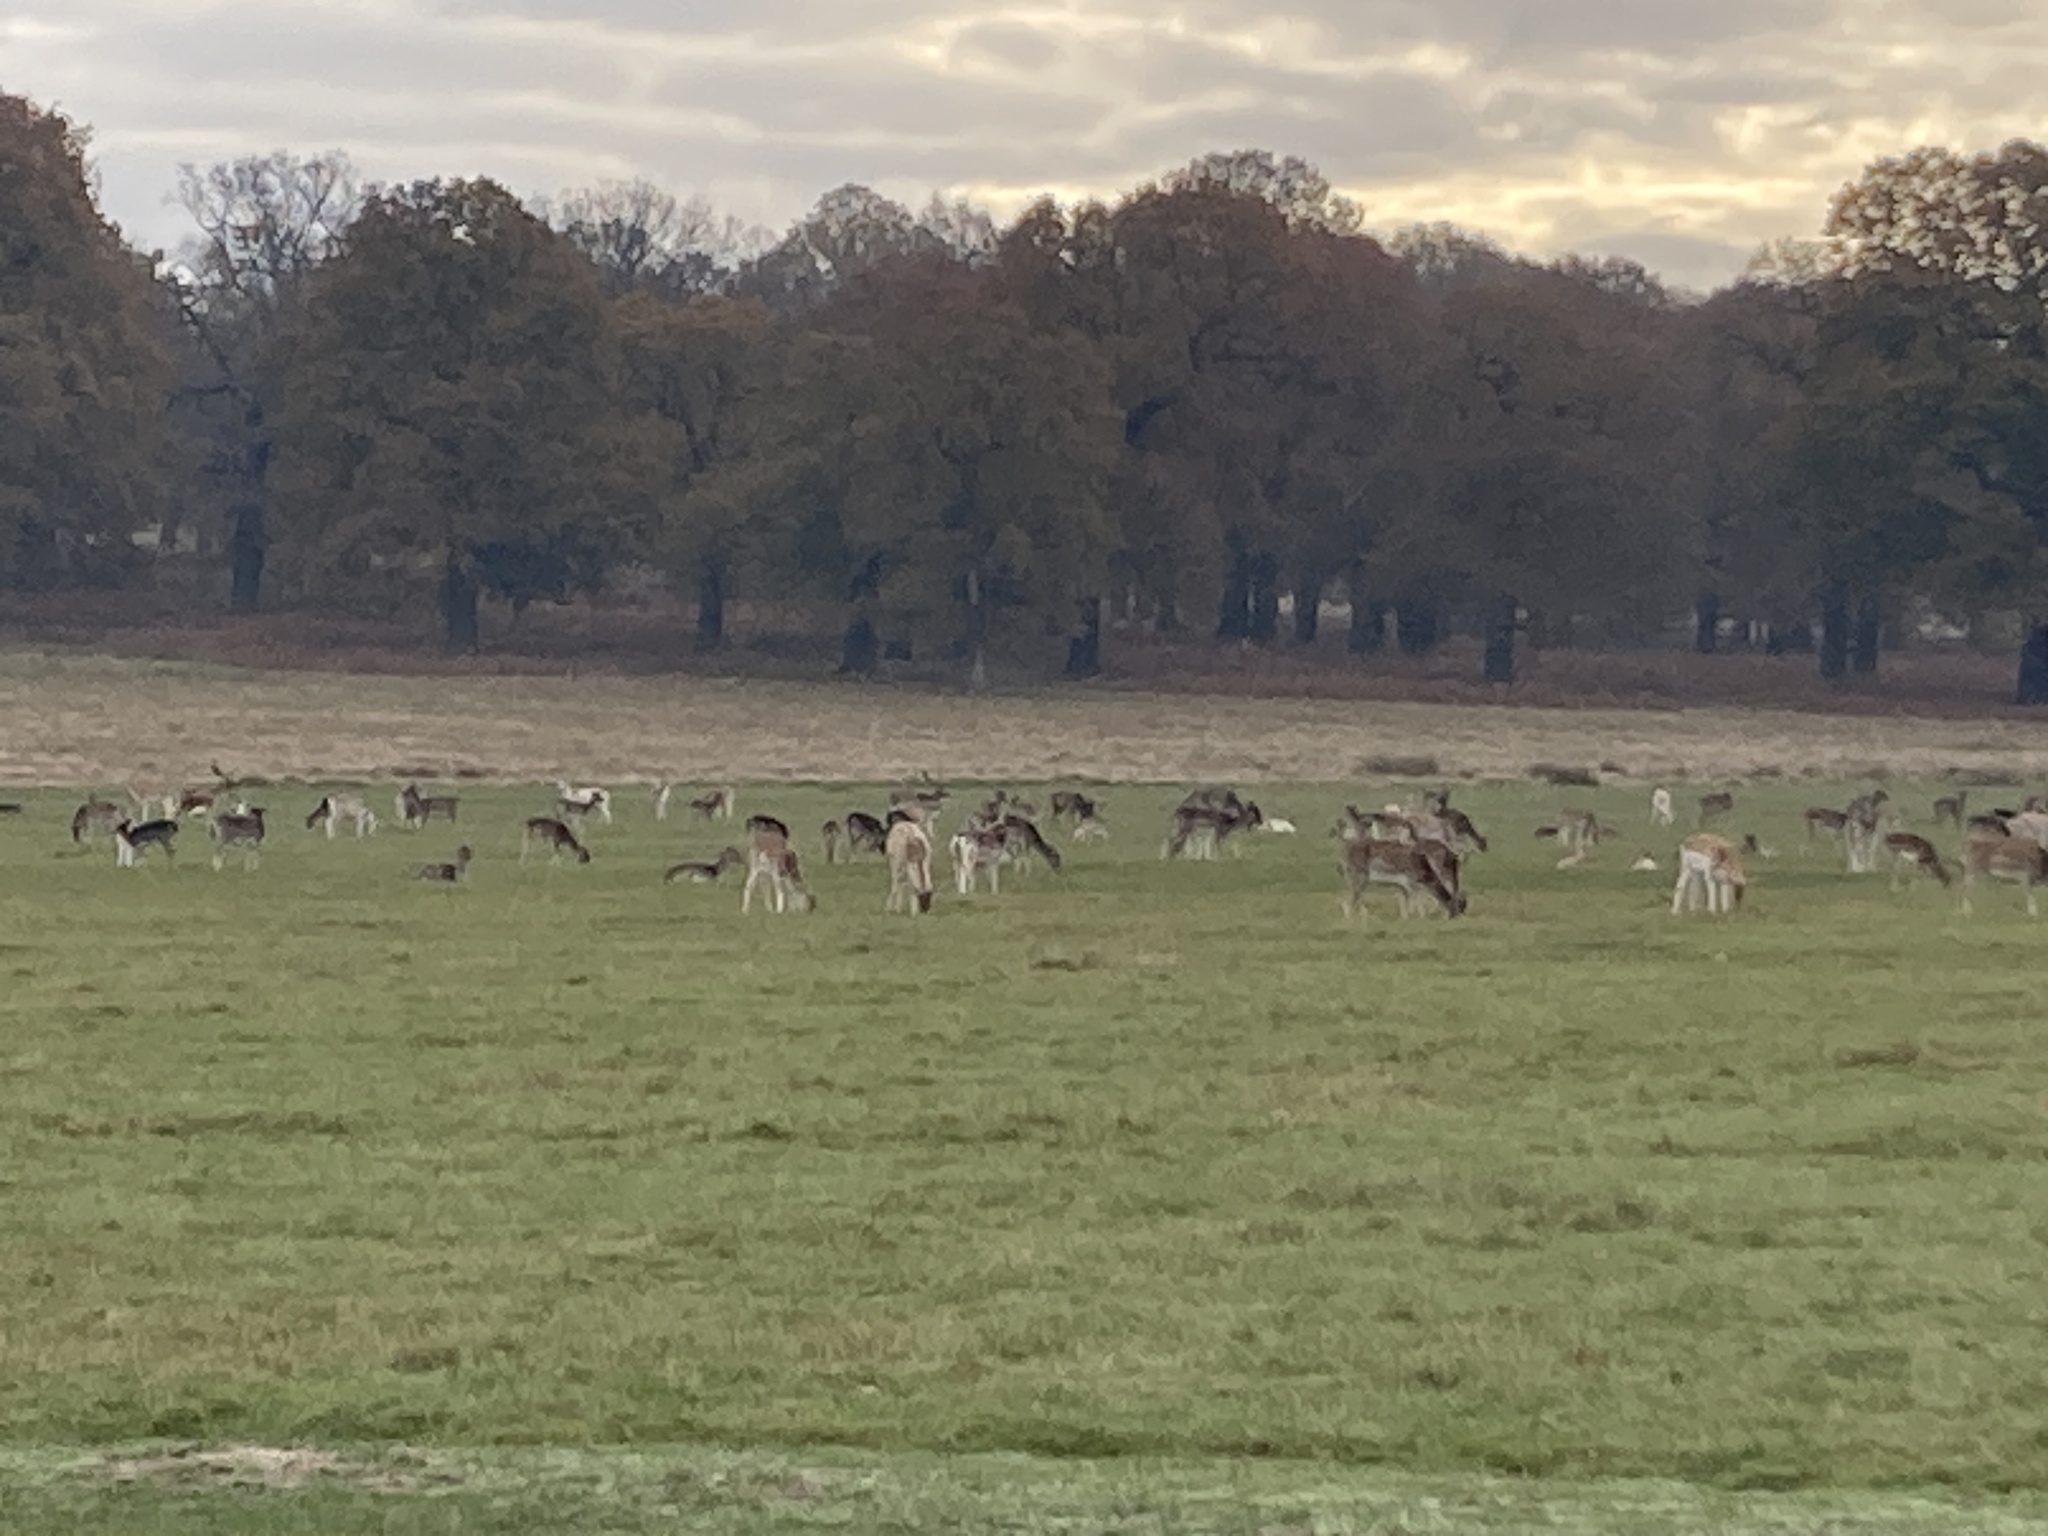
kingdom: Animalia
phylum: Chordata
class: Mammalia
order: Artiodactyla
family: Cervidae
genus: Dama
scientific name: Dama dama
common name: Fallow deer
